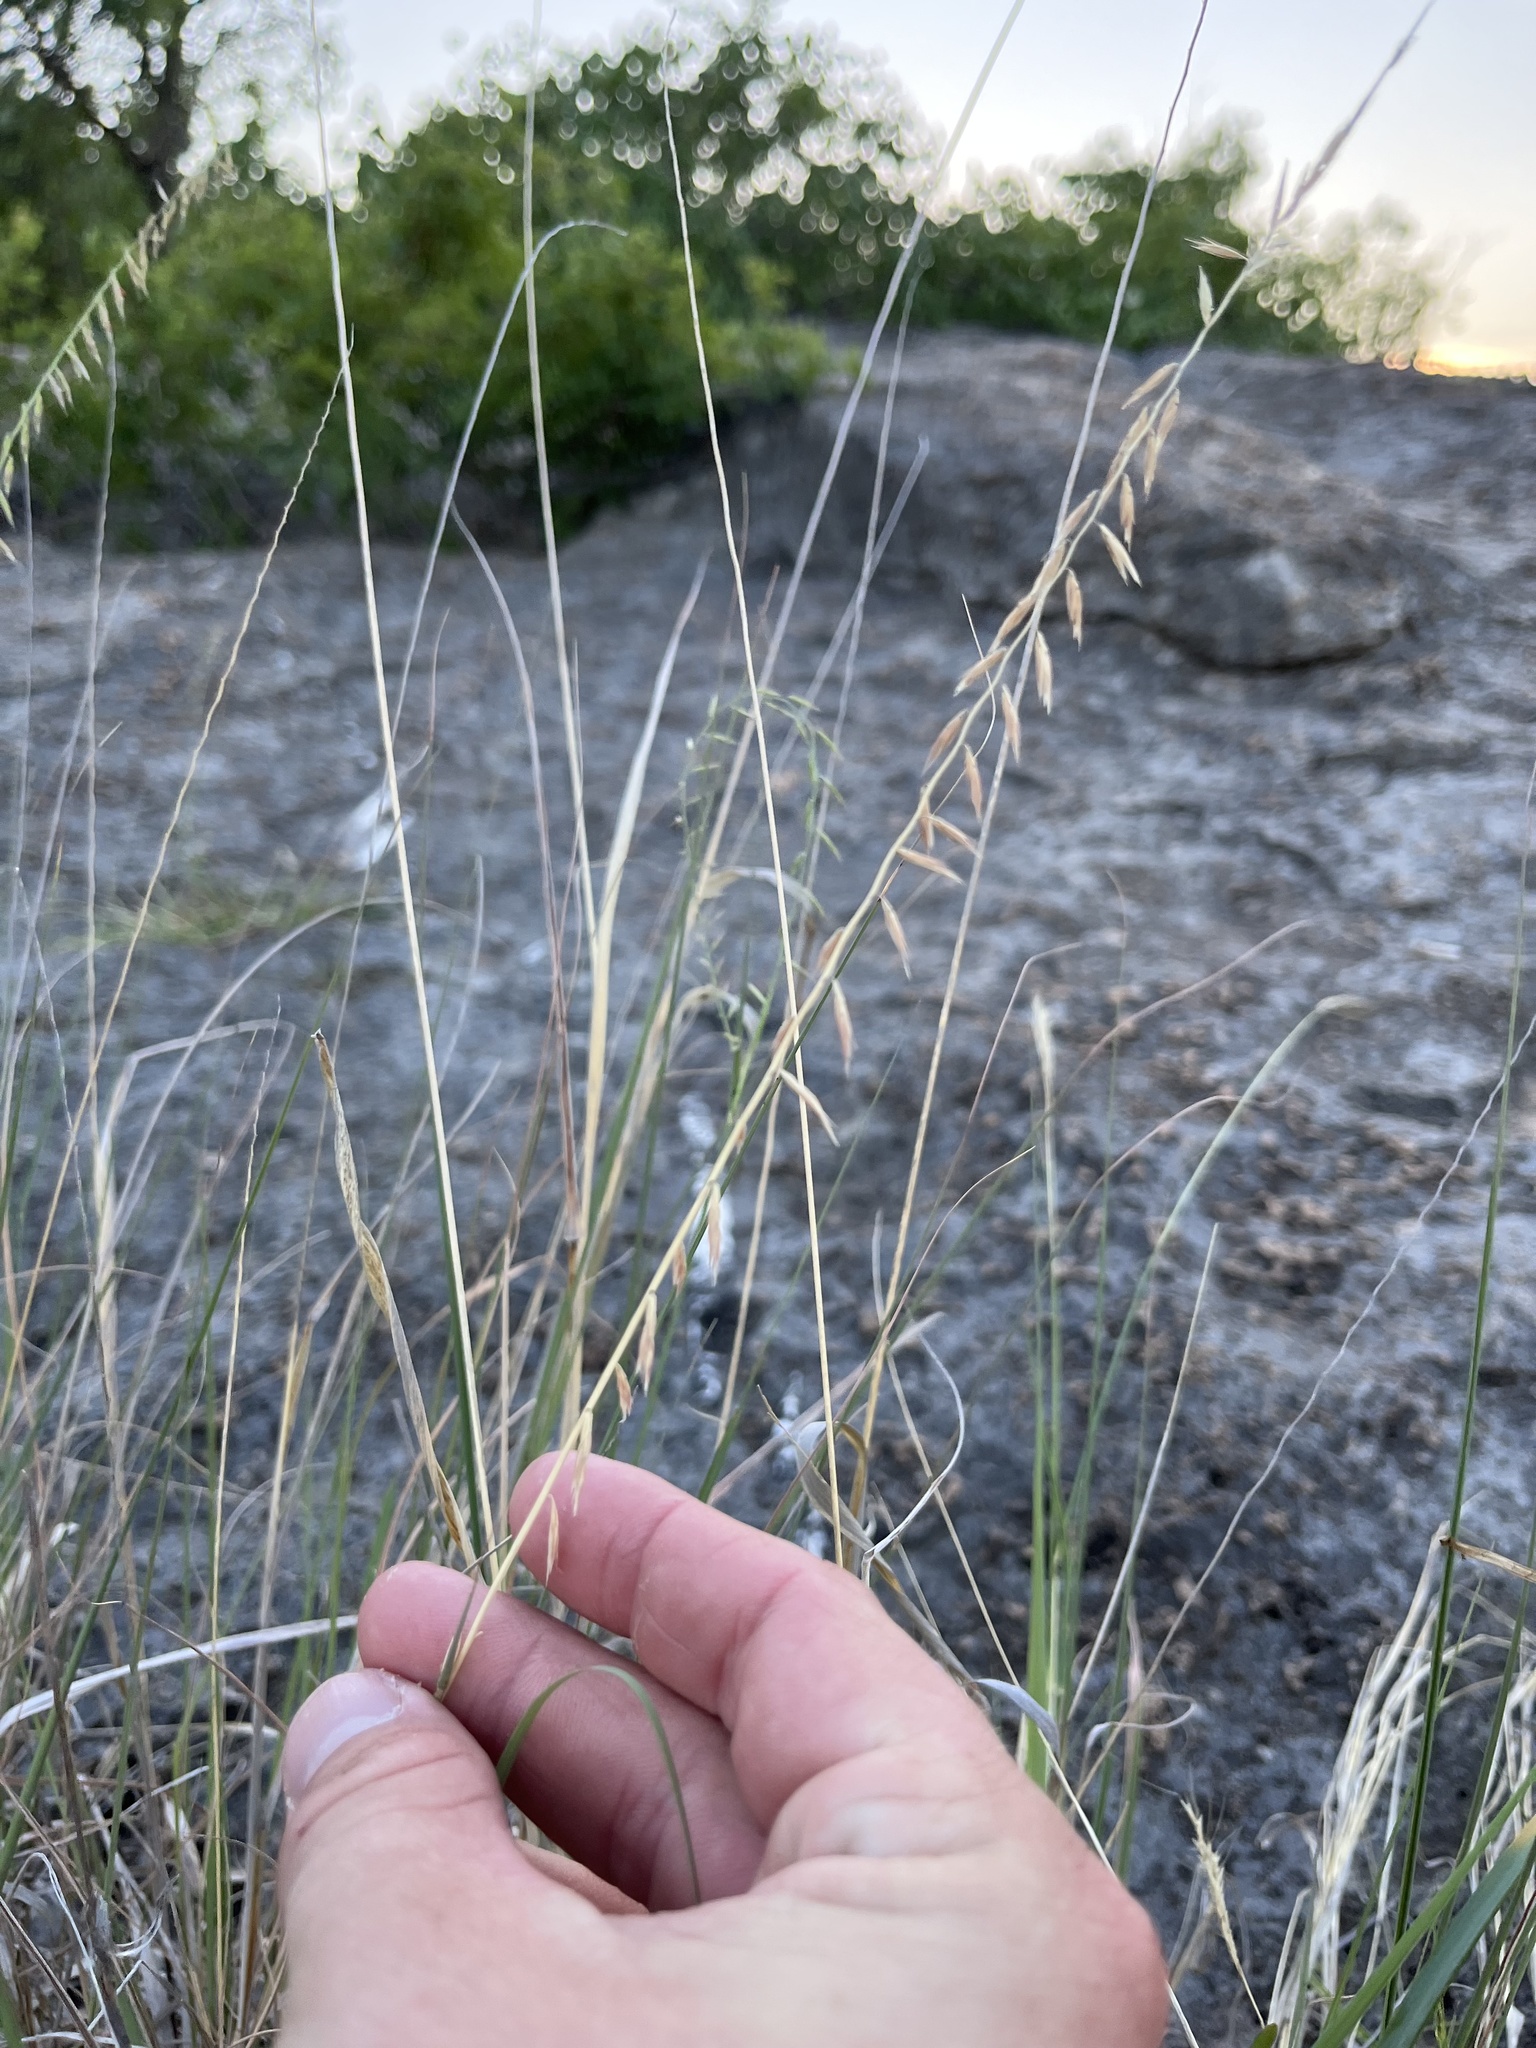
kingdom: Plantae
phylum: Tracheophyta
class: Liliopsida
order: Poales
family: Poaceae
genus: Bouteloua
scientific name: Bouteloua curtipendula
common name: Side-oats grama
